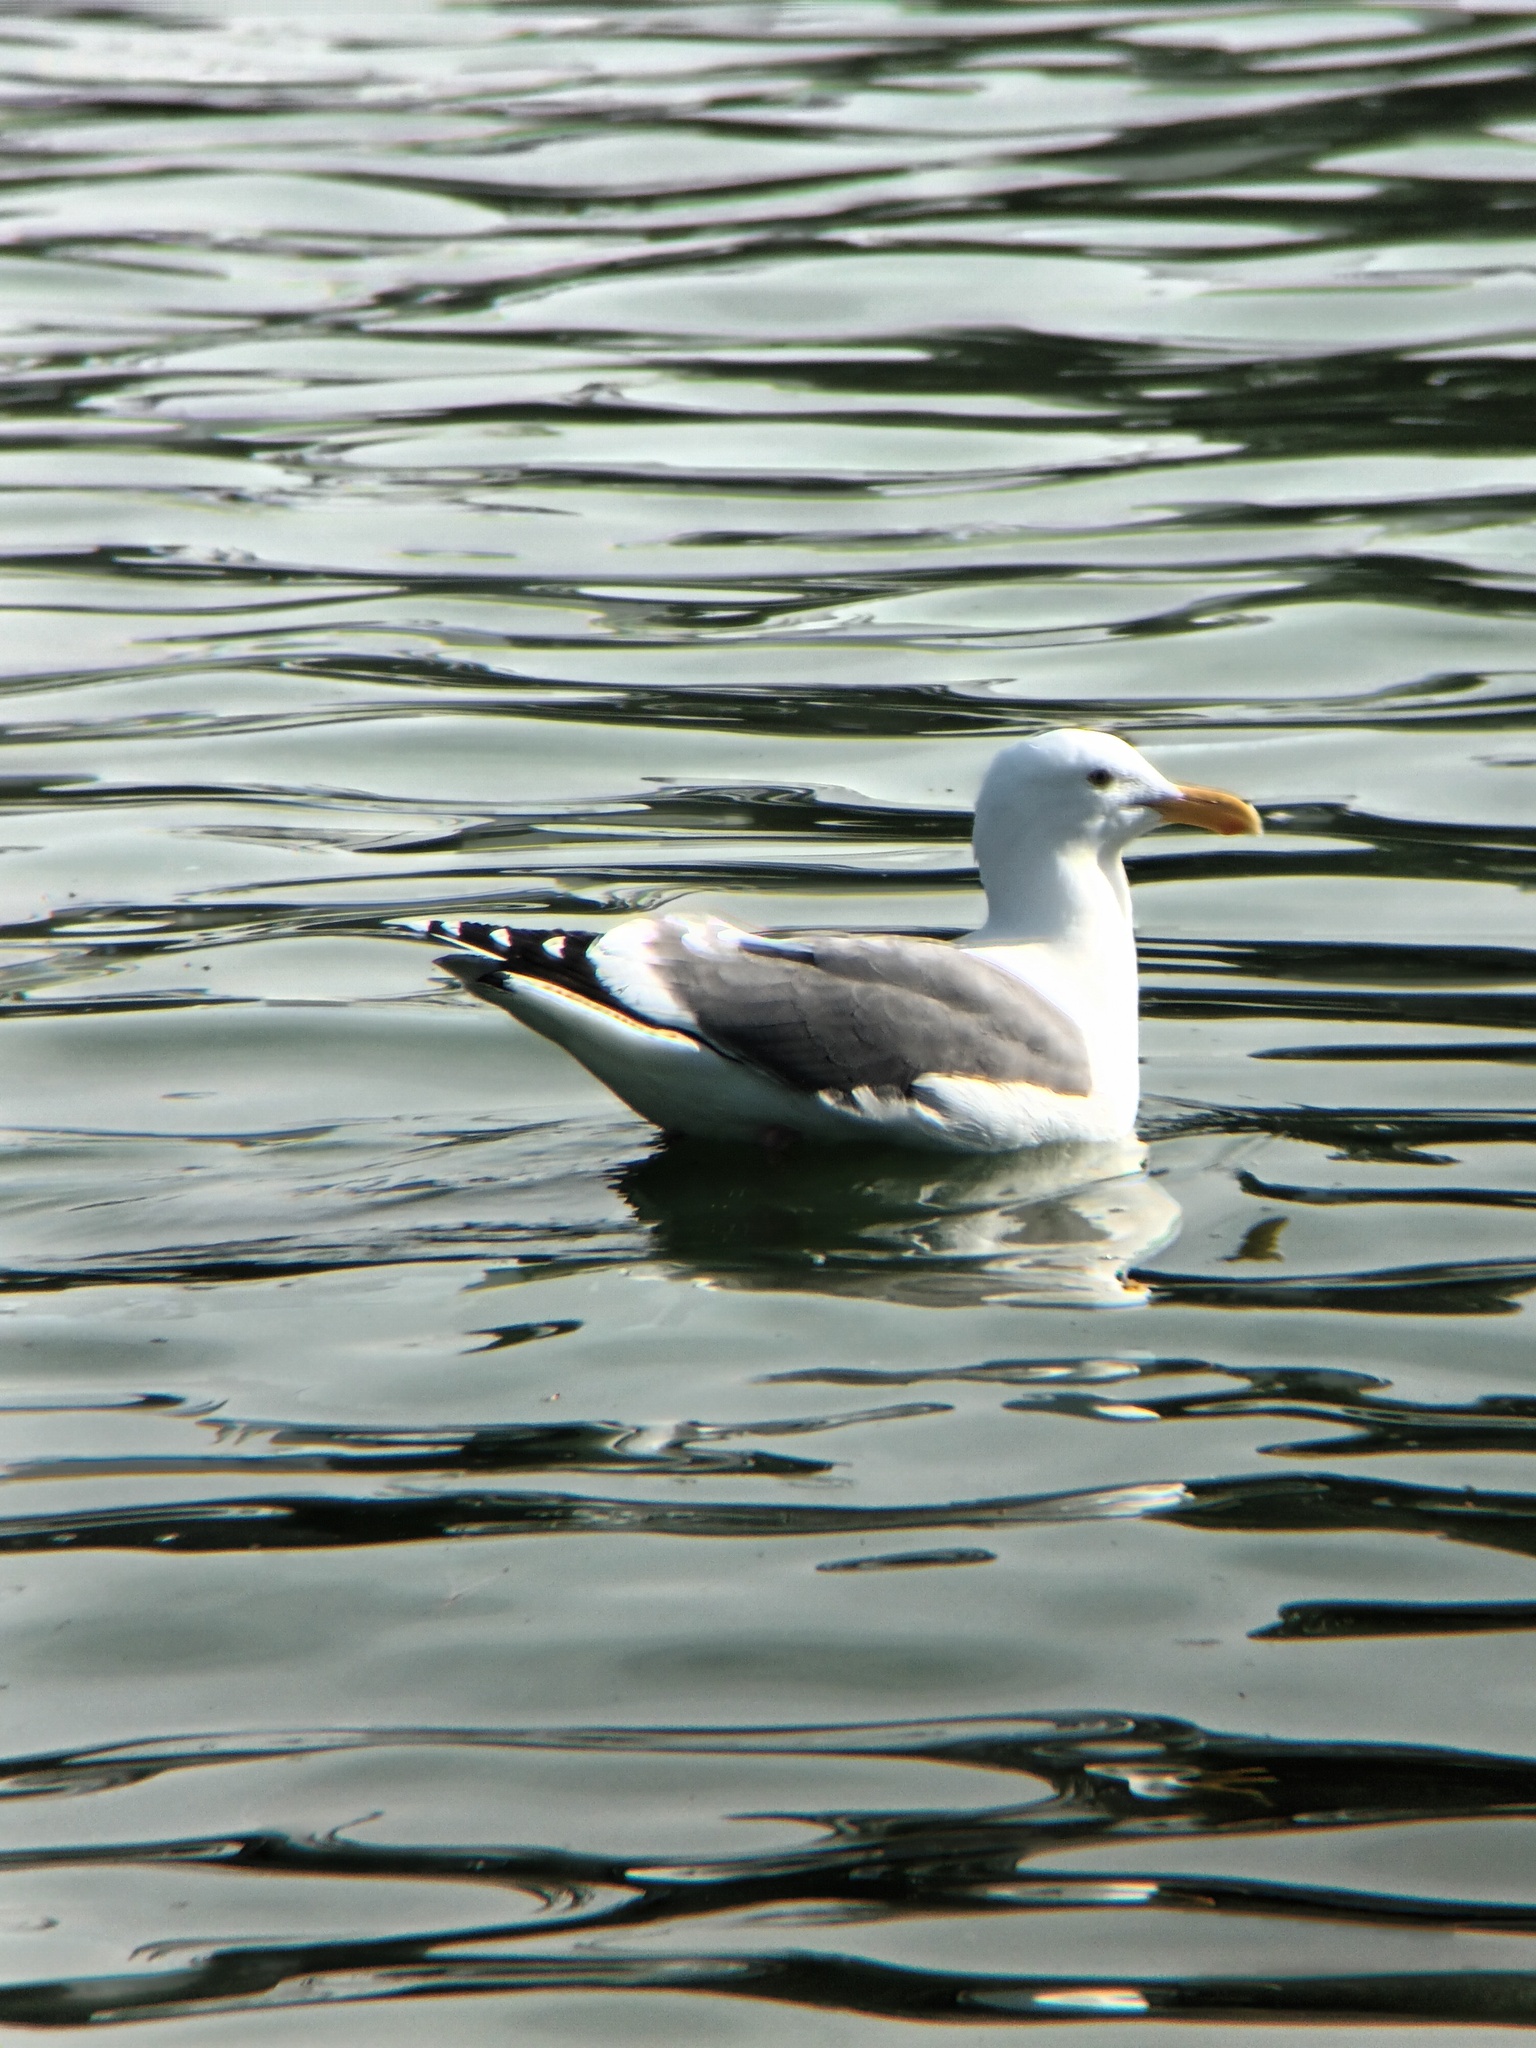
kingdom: Animalia
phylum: Chordata
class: Aves
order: Charadriiformes
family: Laridae
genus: Larus
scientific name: Larus occidentalis
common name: Western gull
